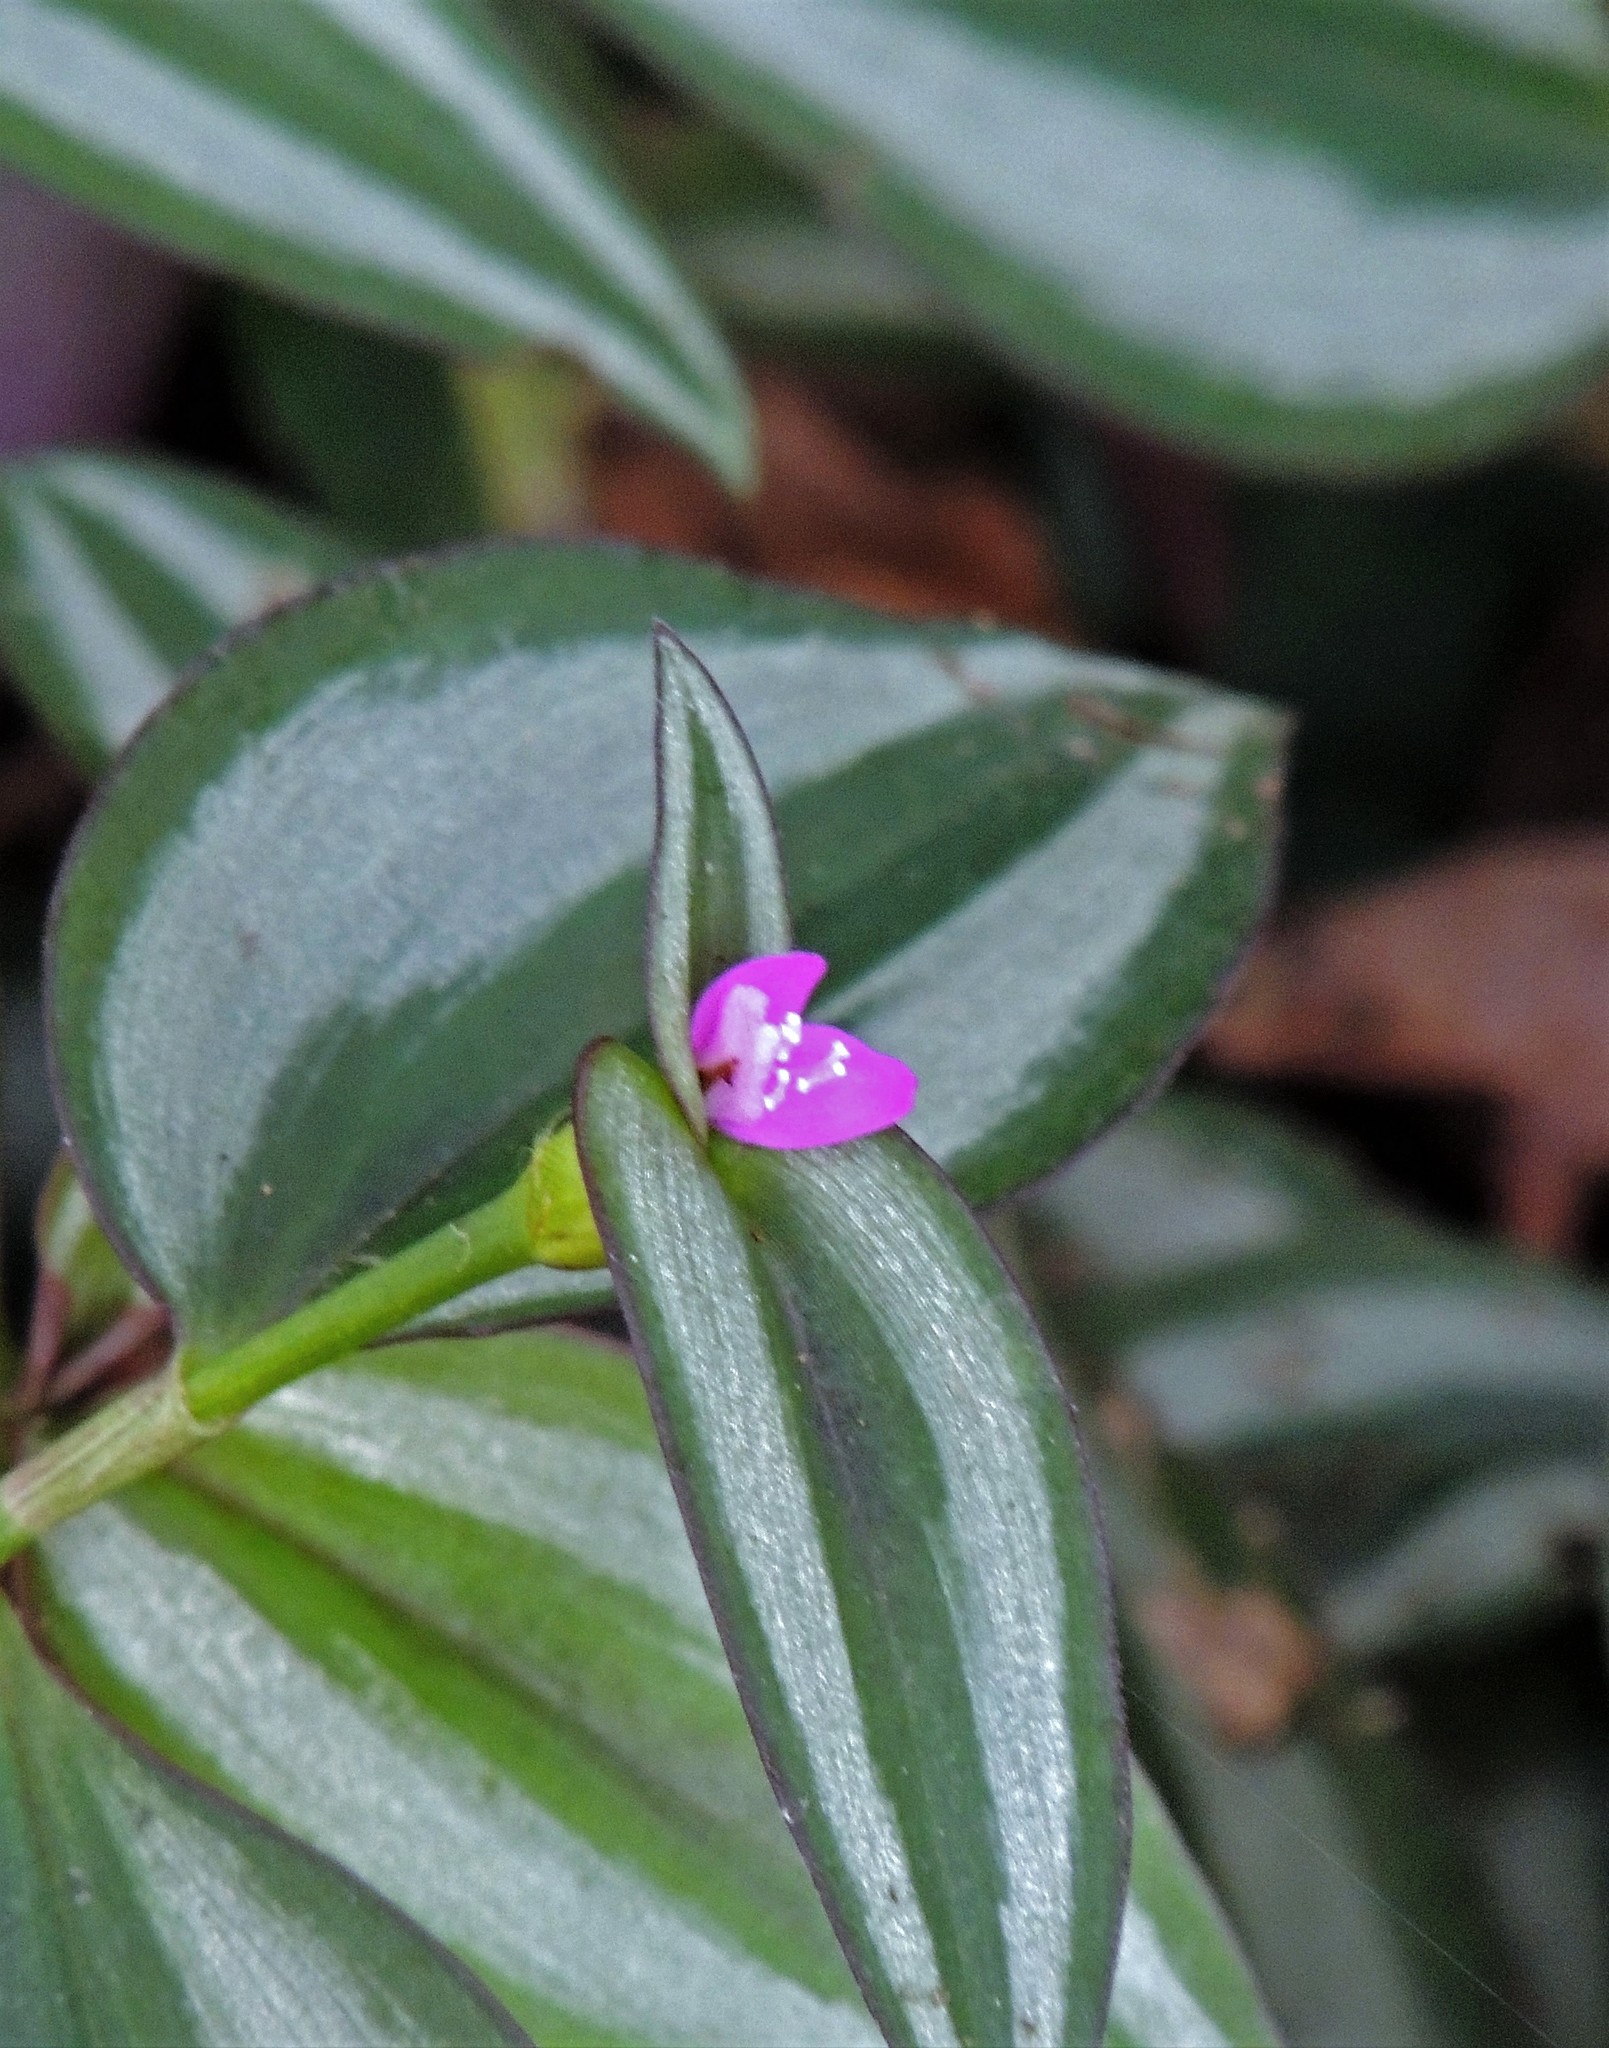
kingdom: Plantae
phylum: Tracheophyta
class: Liliopsida
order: Commelinales
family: Commelinaceae
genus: Tradescantia
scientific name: Tradescantia zebrina
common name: Inchplant
